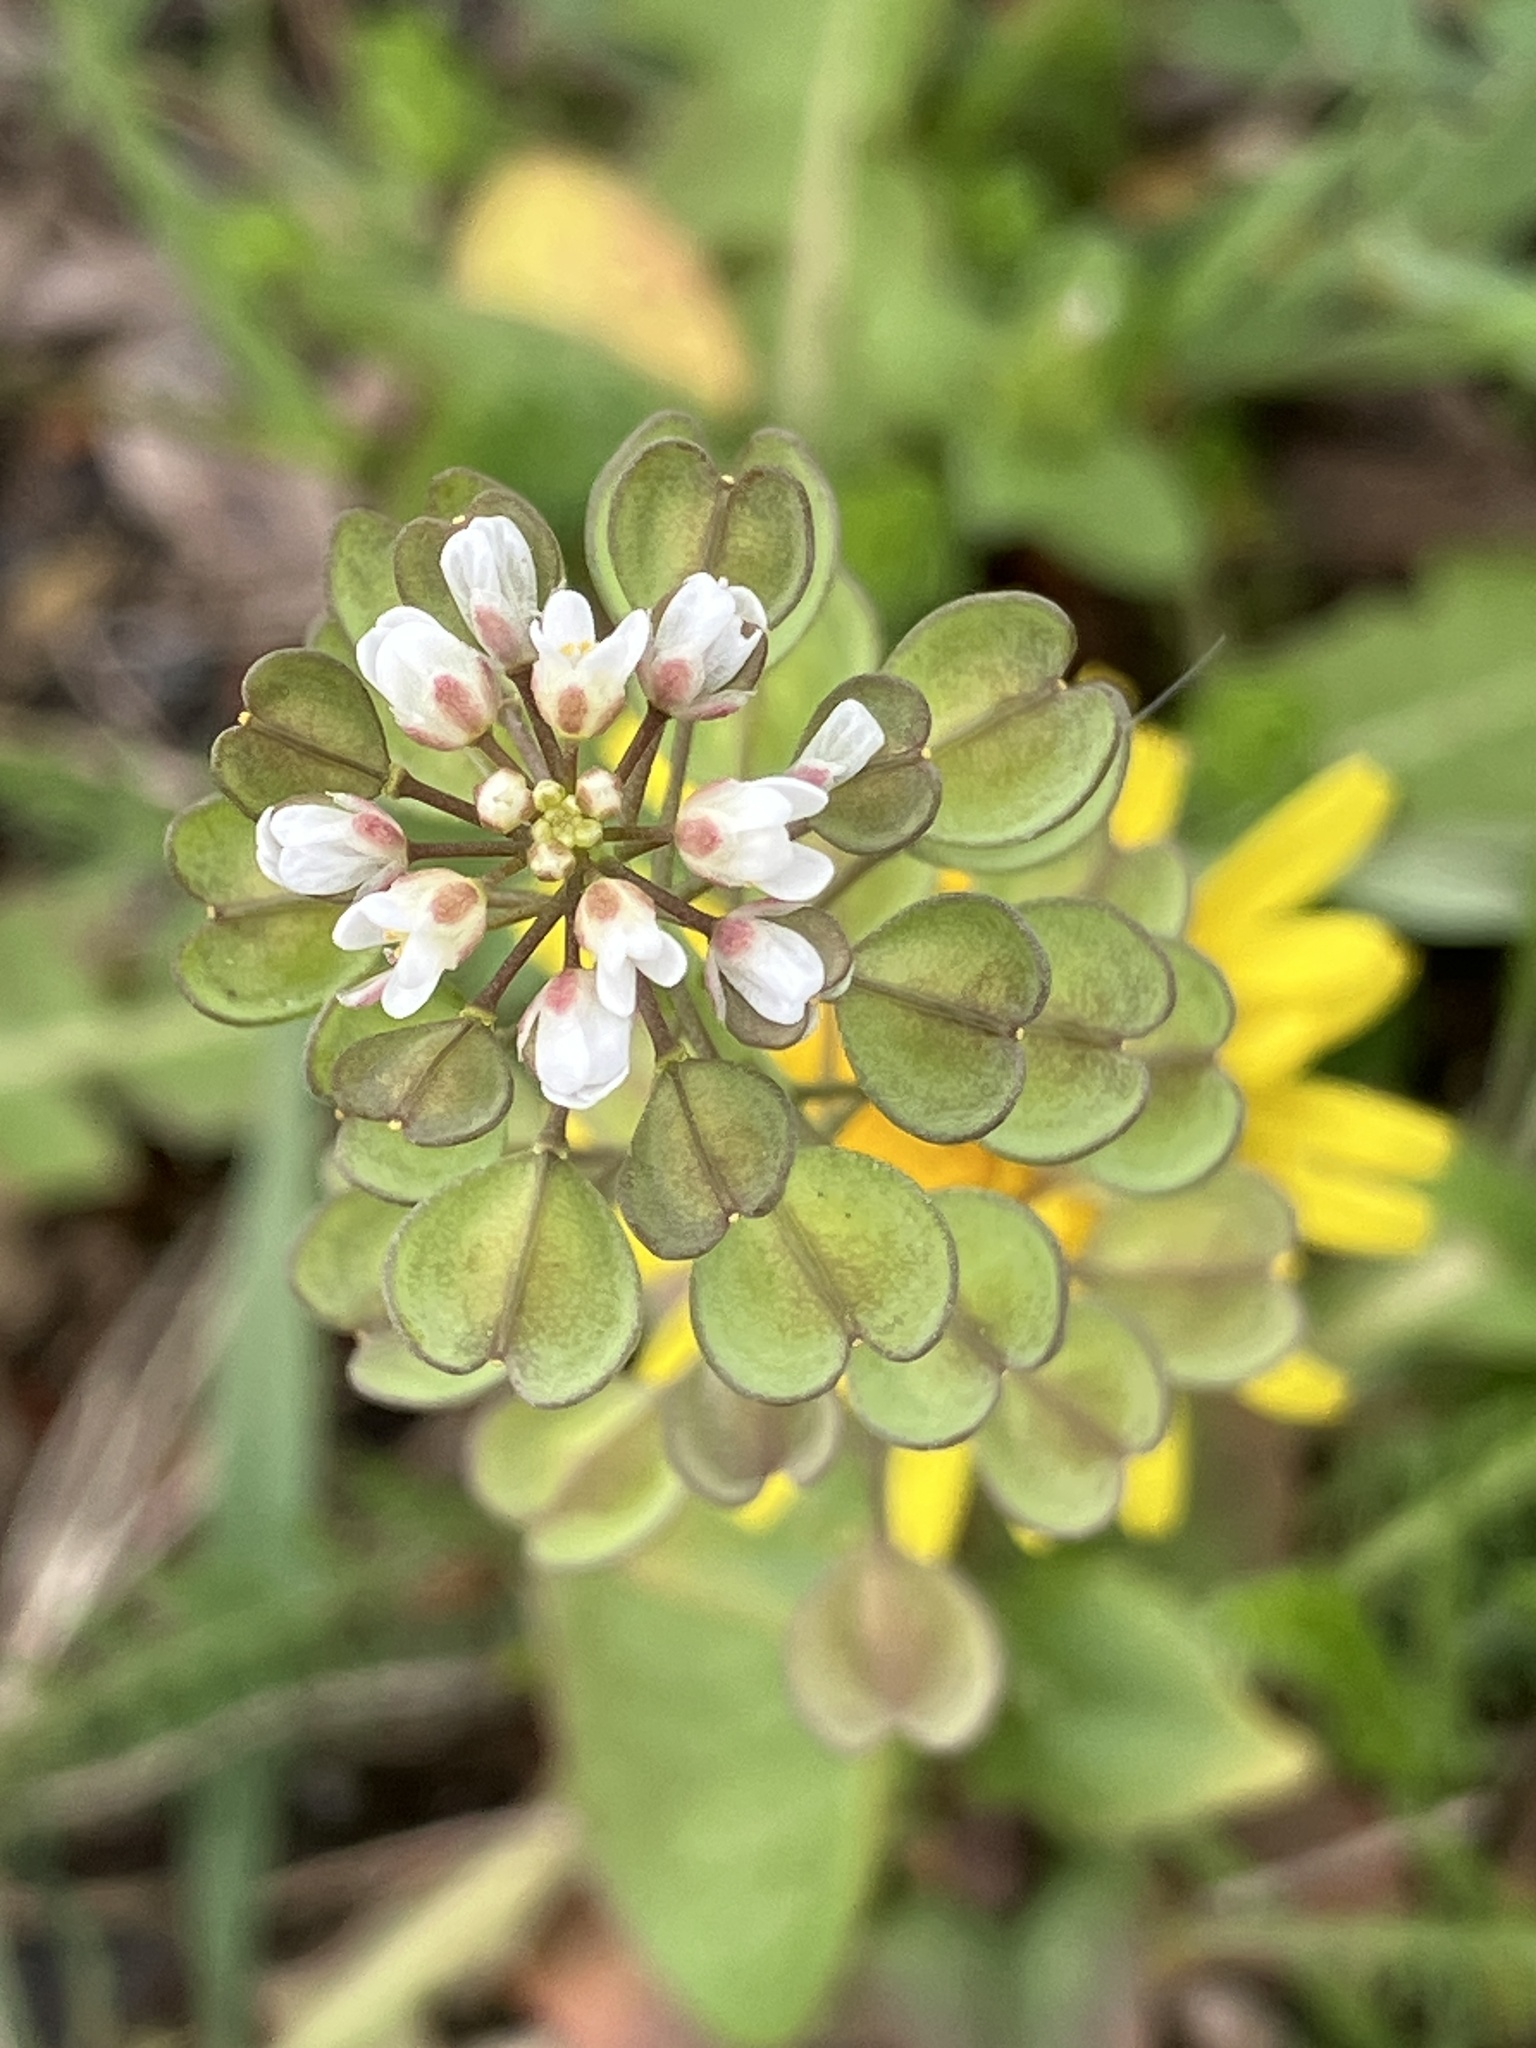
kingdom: Plantae
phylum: Tracheophyta
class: Magnoliopsida
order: Brassicales
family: Brassicaceae
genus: Noccaea
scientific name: Noccaea perfoliata
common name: Perfoliate pennycress
